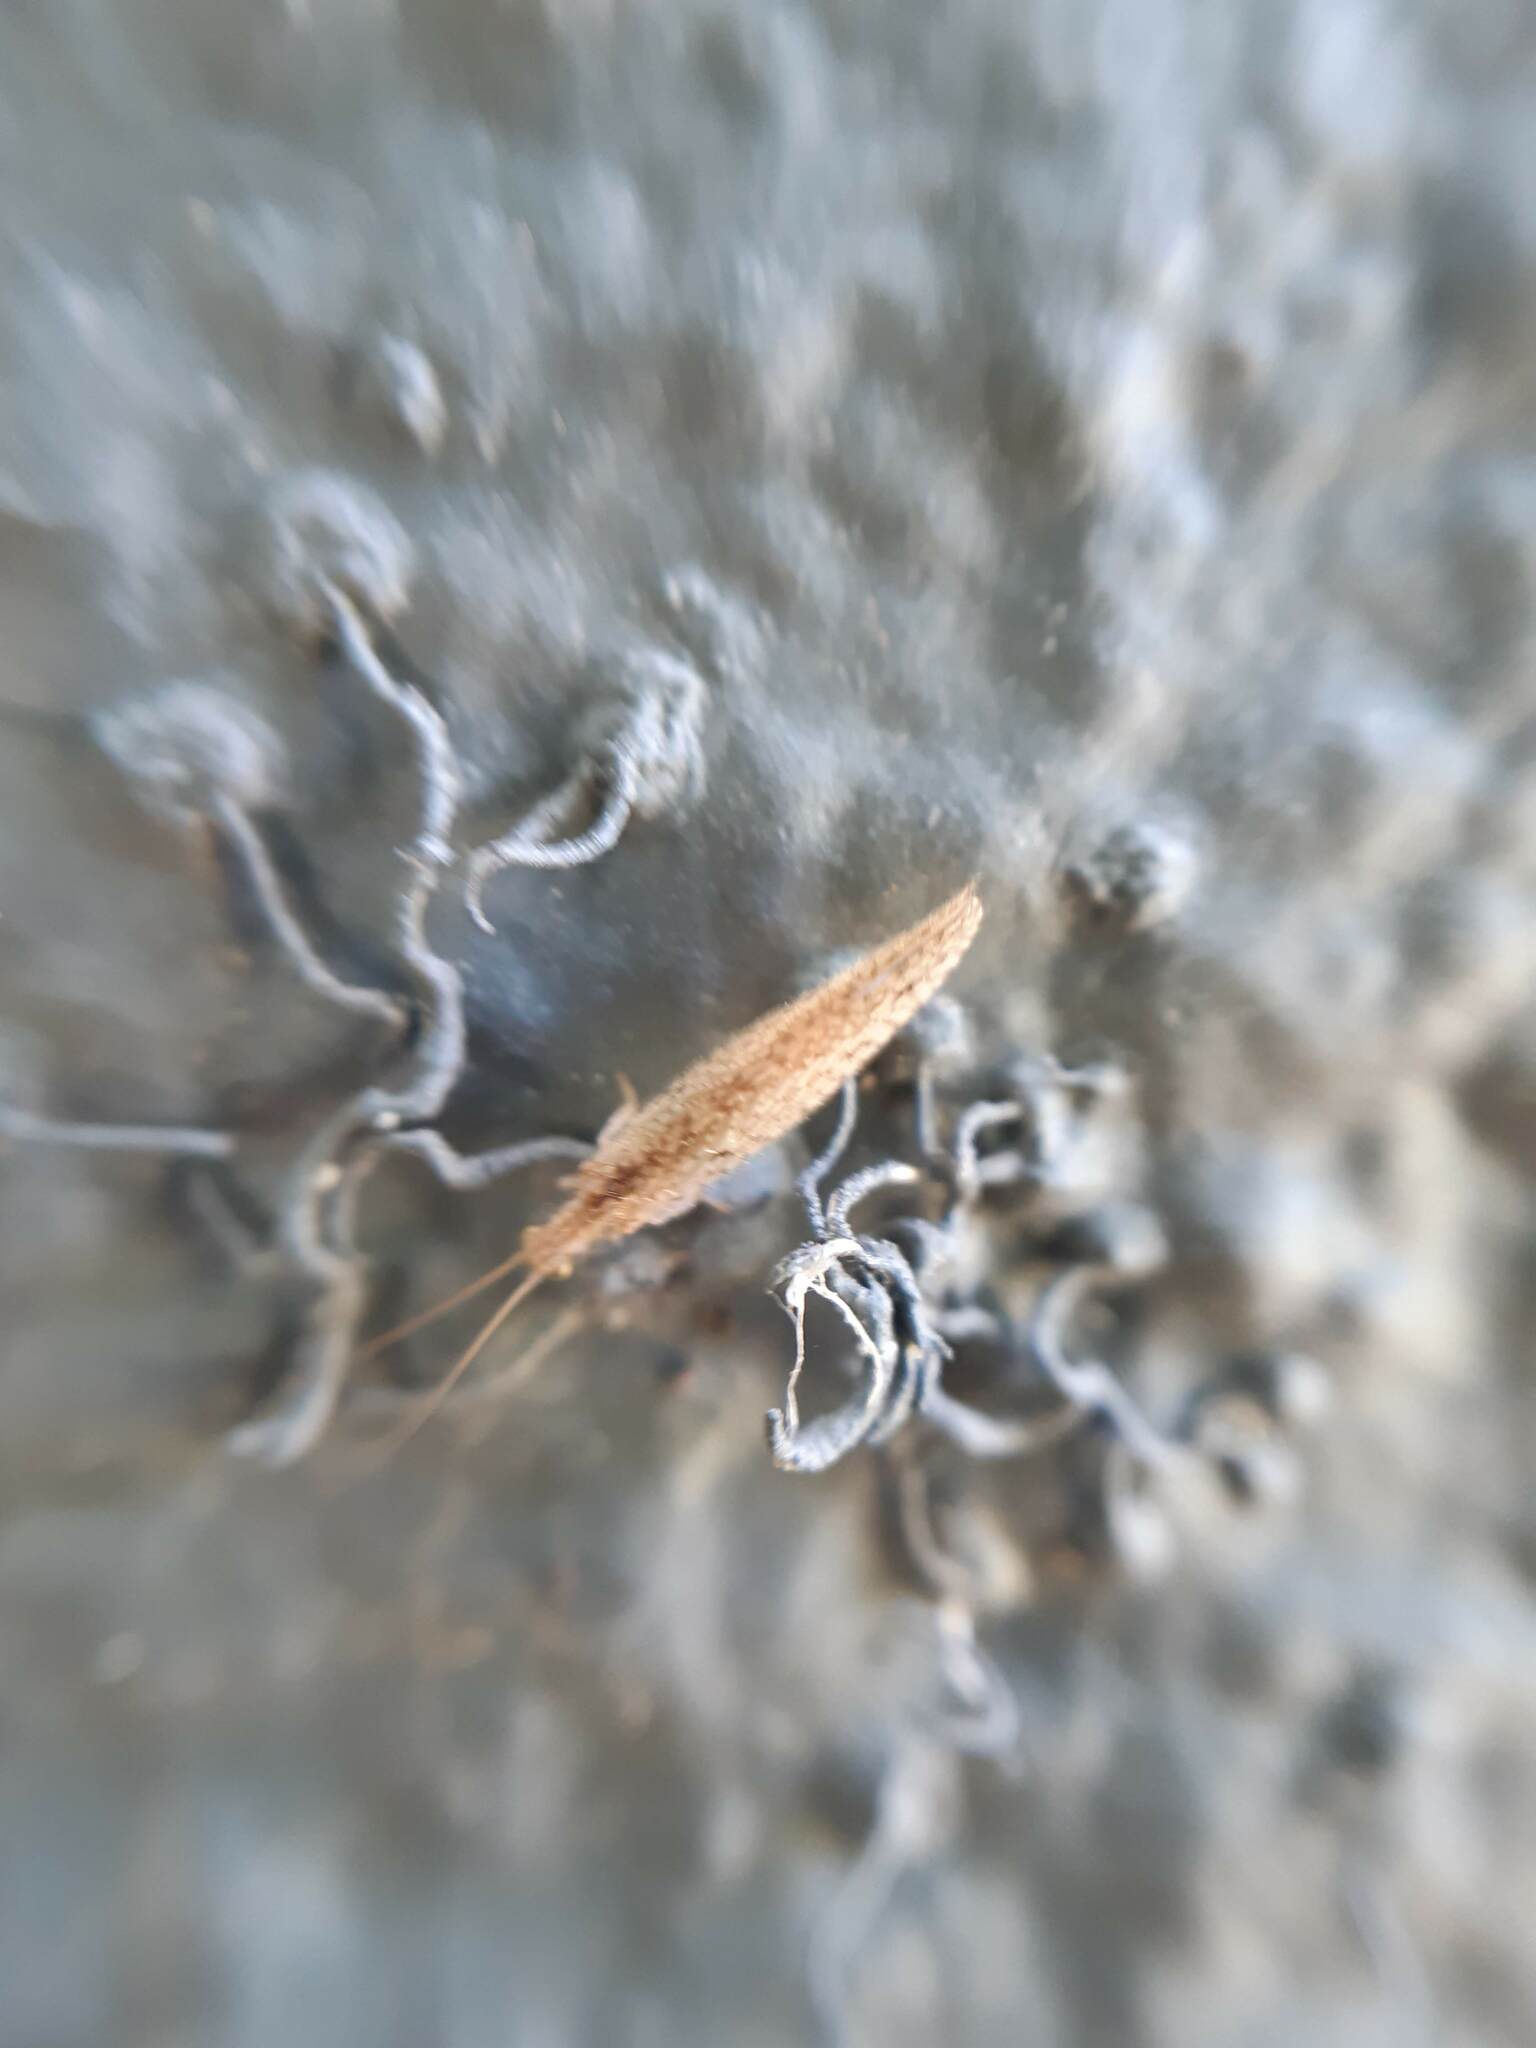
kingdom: Animalia
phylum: Arthropoda
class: Insecta
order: Neuroptera
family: Hemerobiidae
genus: Micromus
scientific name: Micromus tasmaniae
